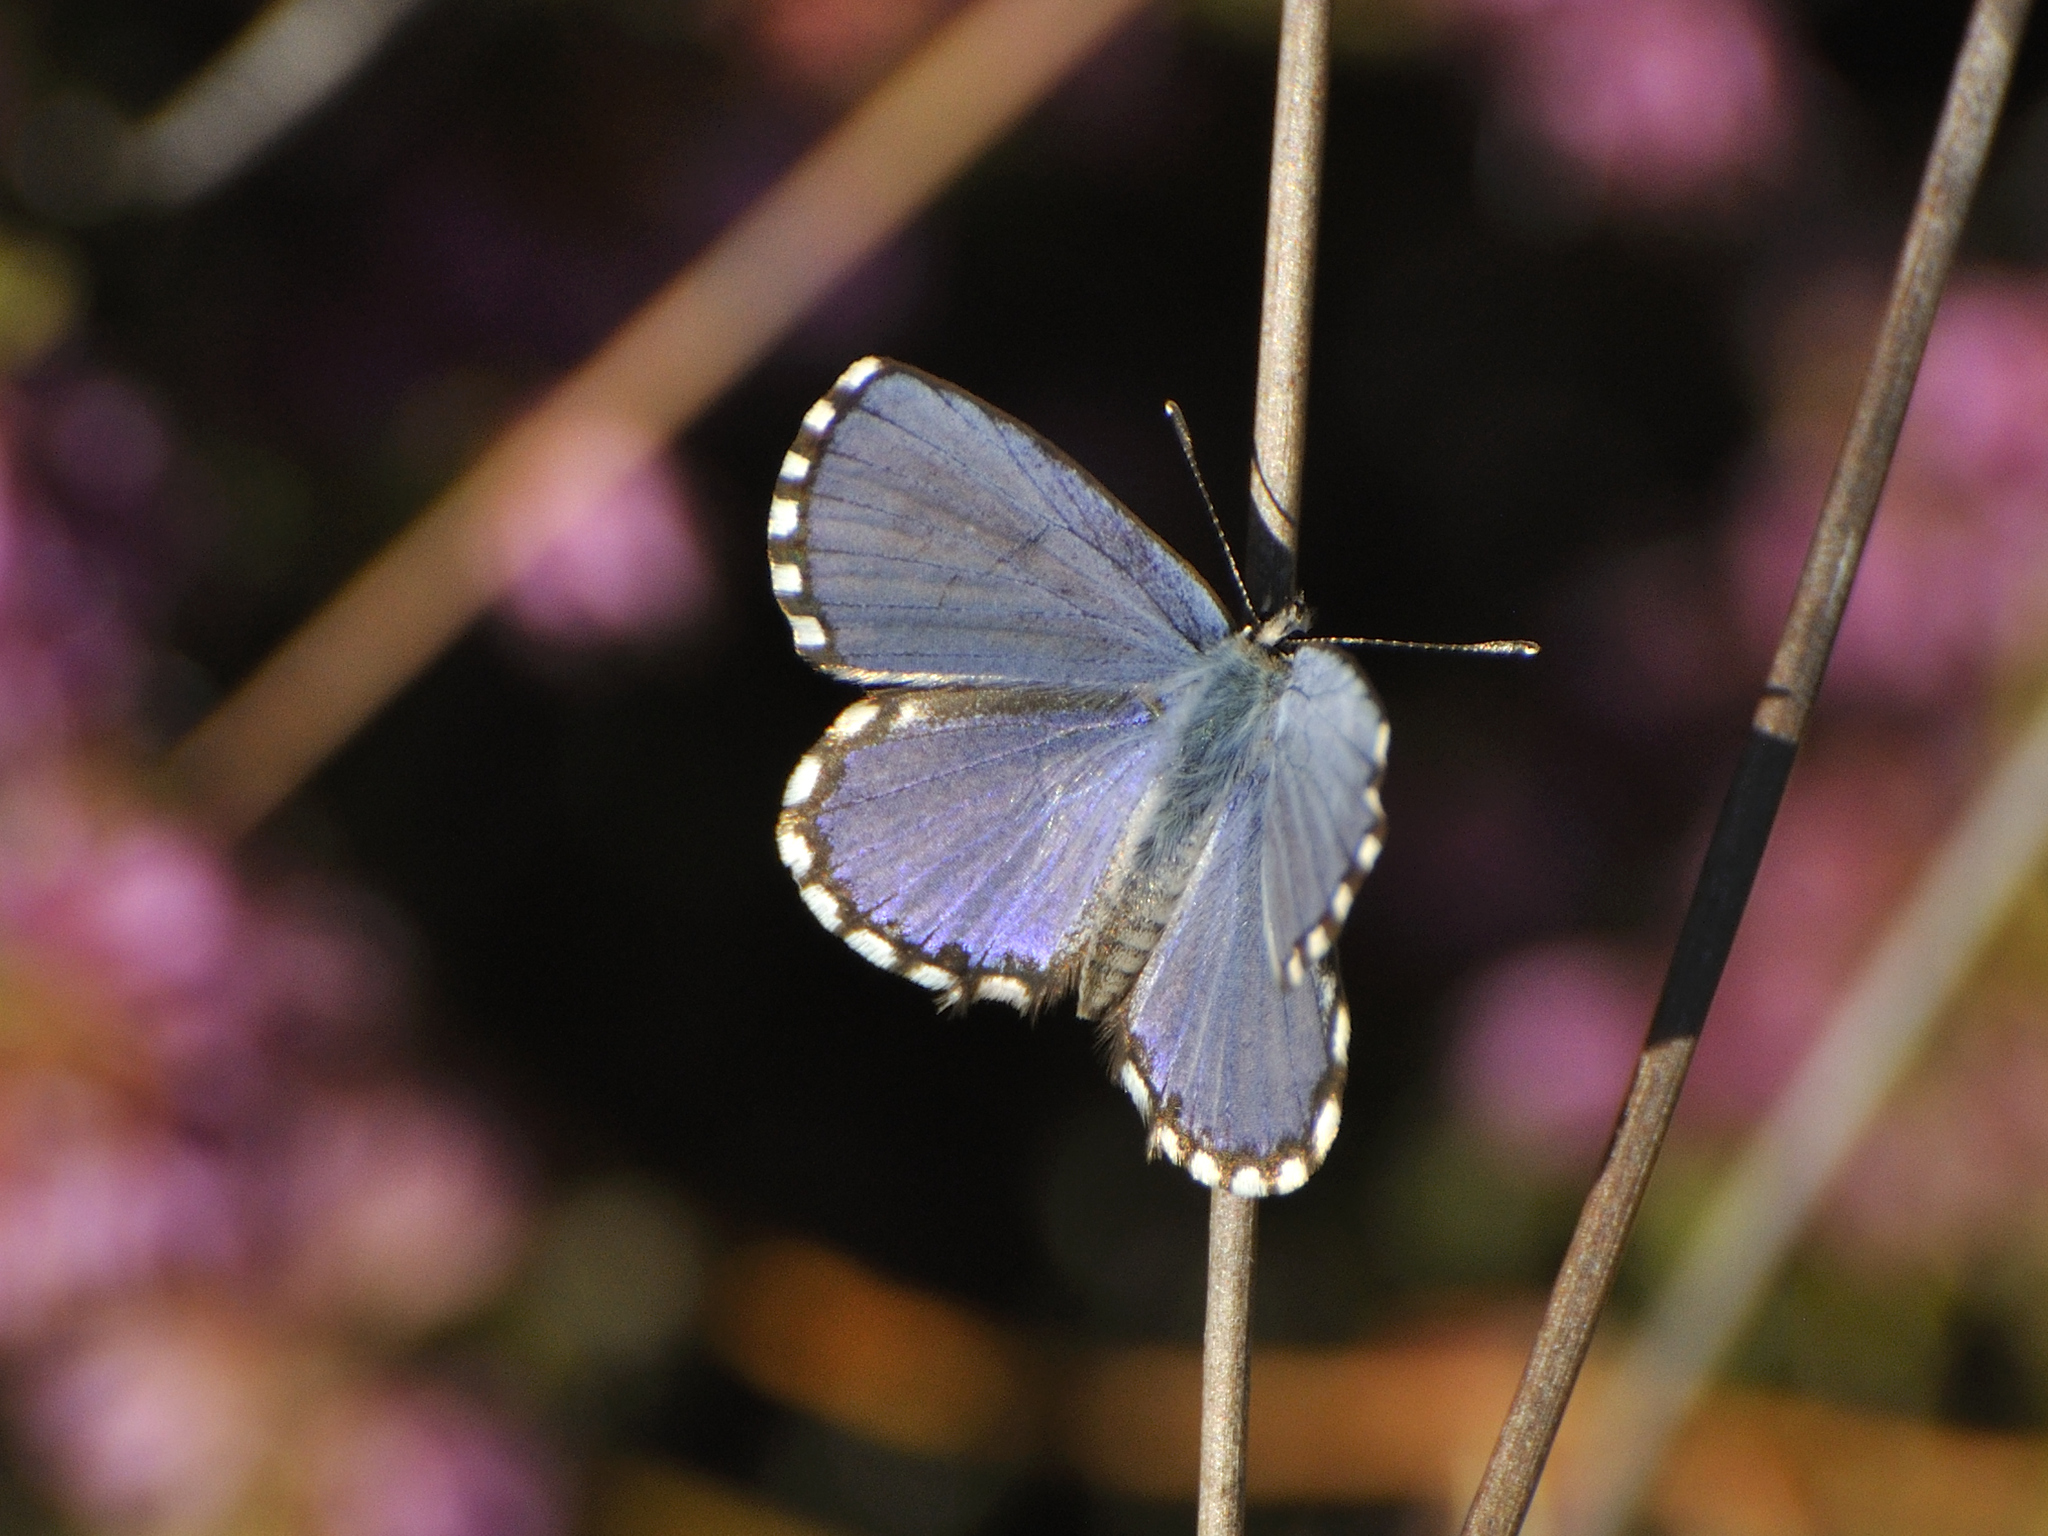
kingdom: Animalia
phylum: Arthropoda
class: Insecta
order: Lepidoptera
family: Lycaenidae
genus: Tarucus
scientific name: Tarucus thespis
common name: Vivid dotted blue
